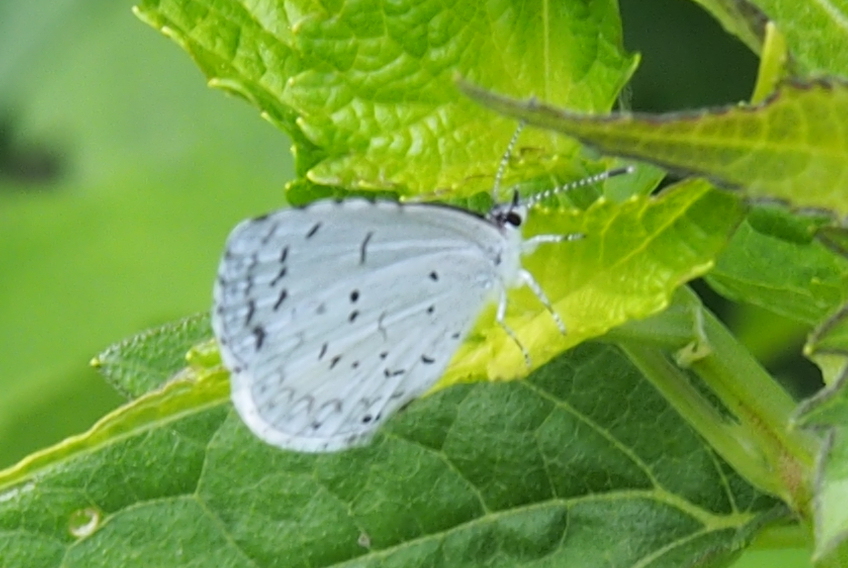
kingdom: Animalia
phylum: Arthropoda
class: Insecta
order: Lepidoptera
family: Lycaenidae
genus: Cyaniris
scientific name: Cyaniris neglecta
